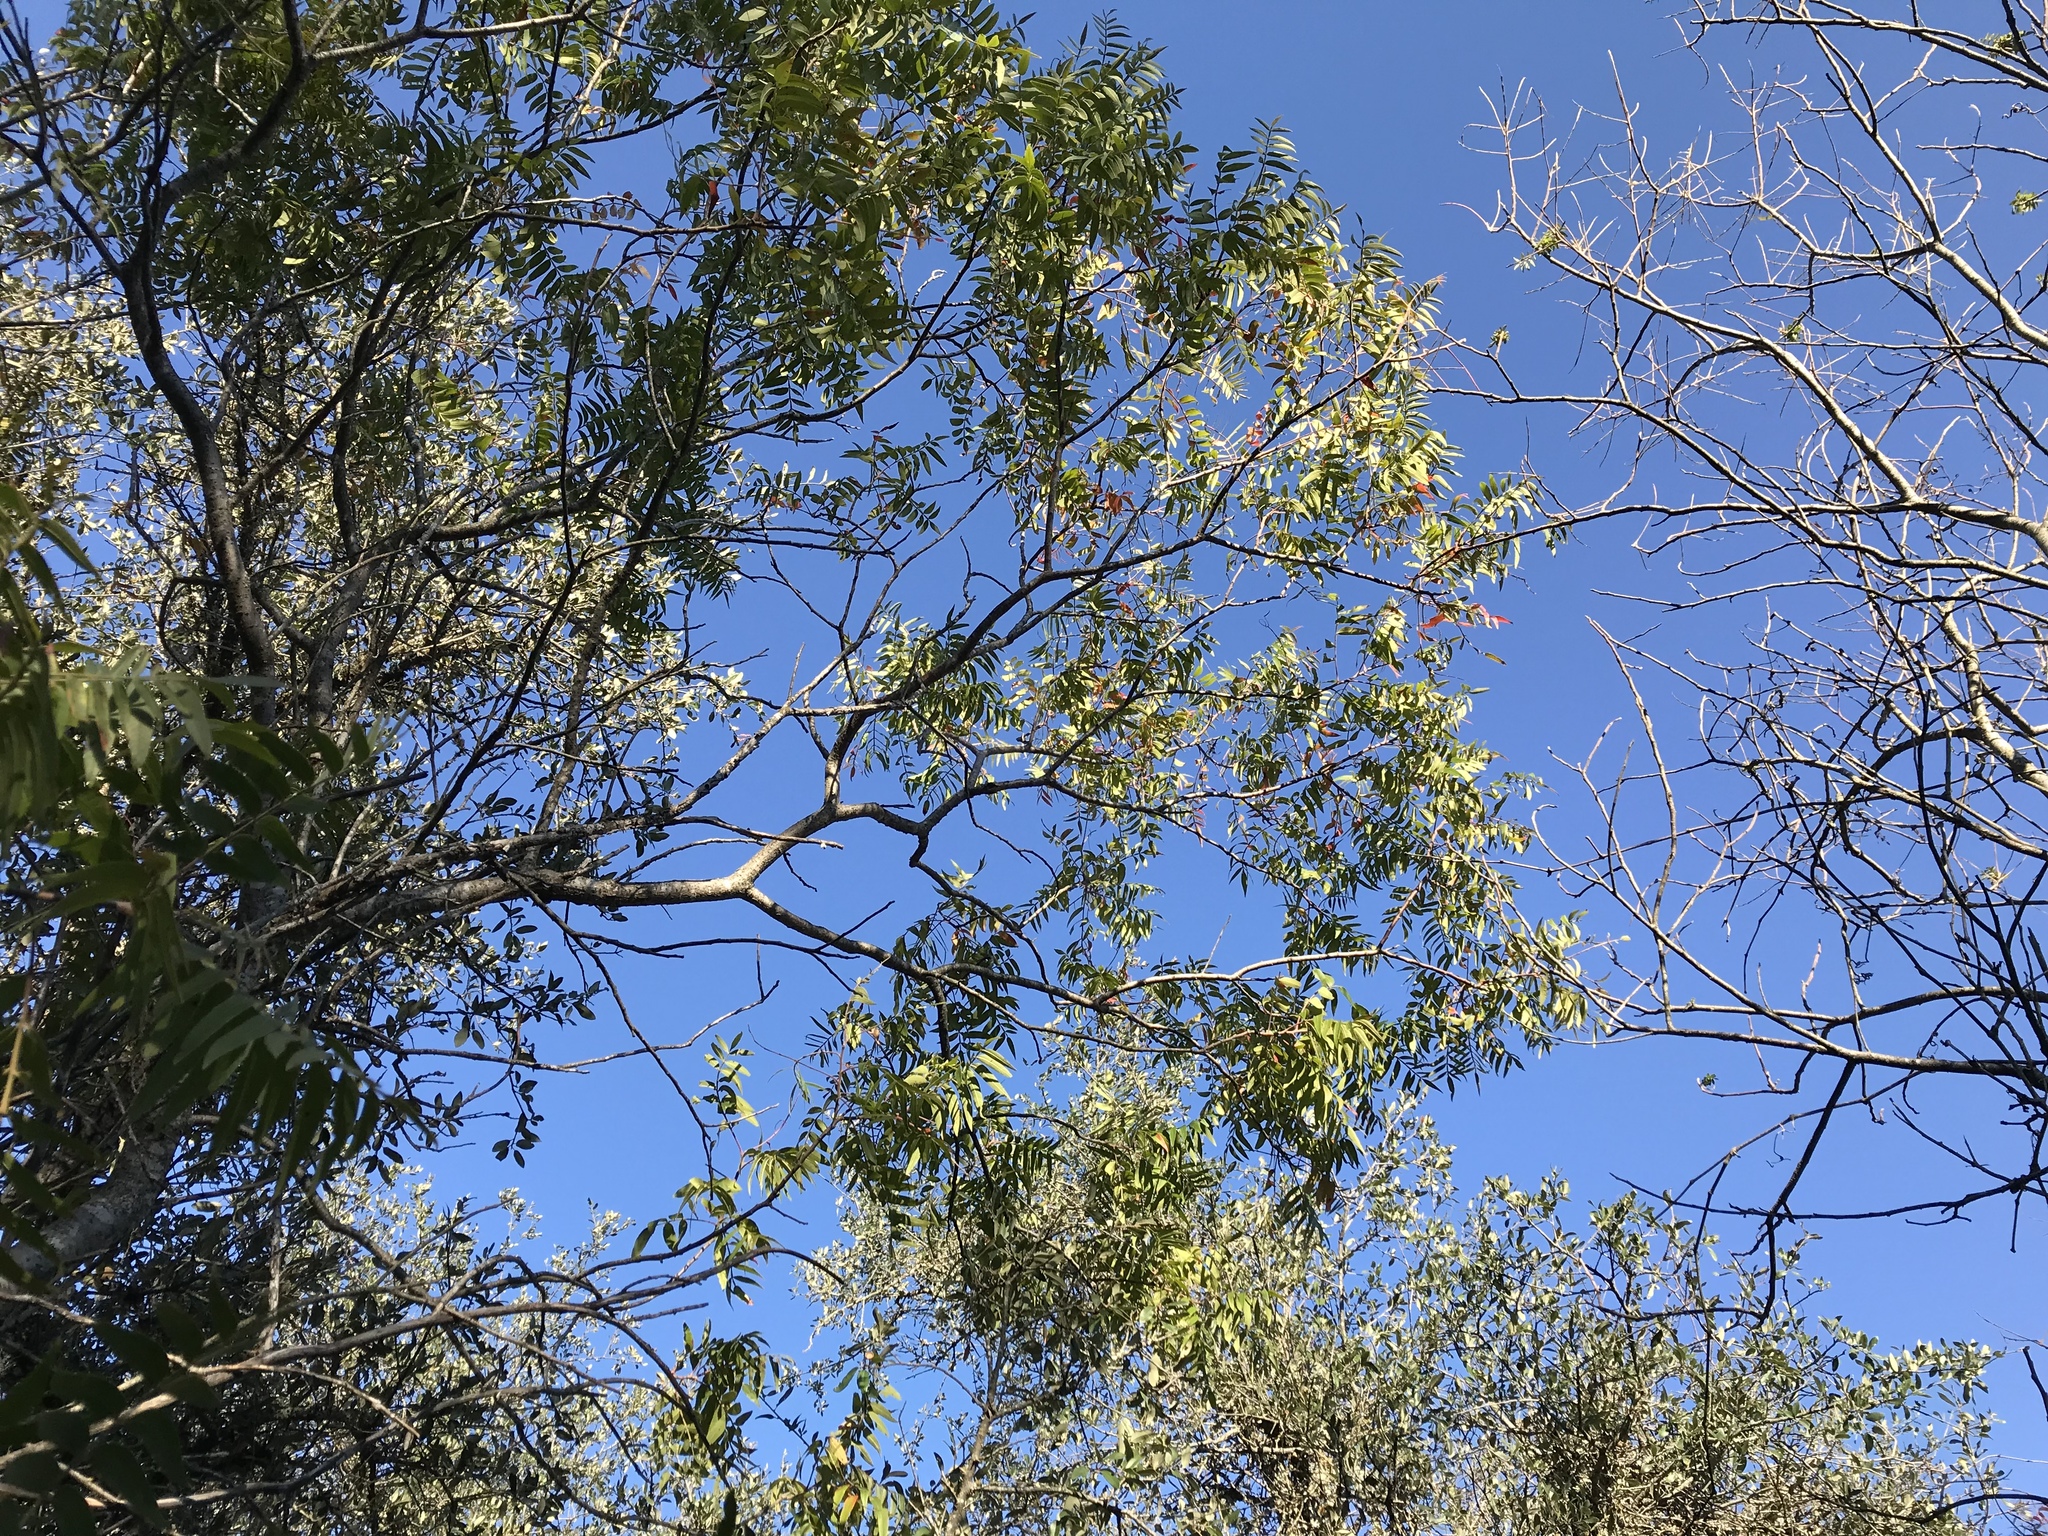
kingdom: Plantae
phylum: Tracheophyta
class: Magnoliopsida
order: Sapindales
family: Anacardiaceae
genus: Rhus
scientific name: Rhus lanceolata
